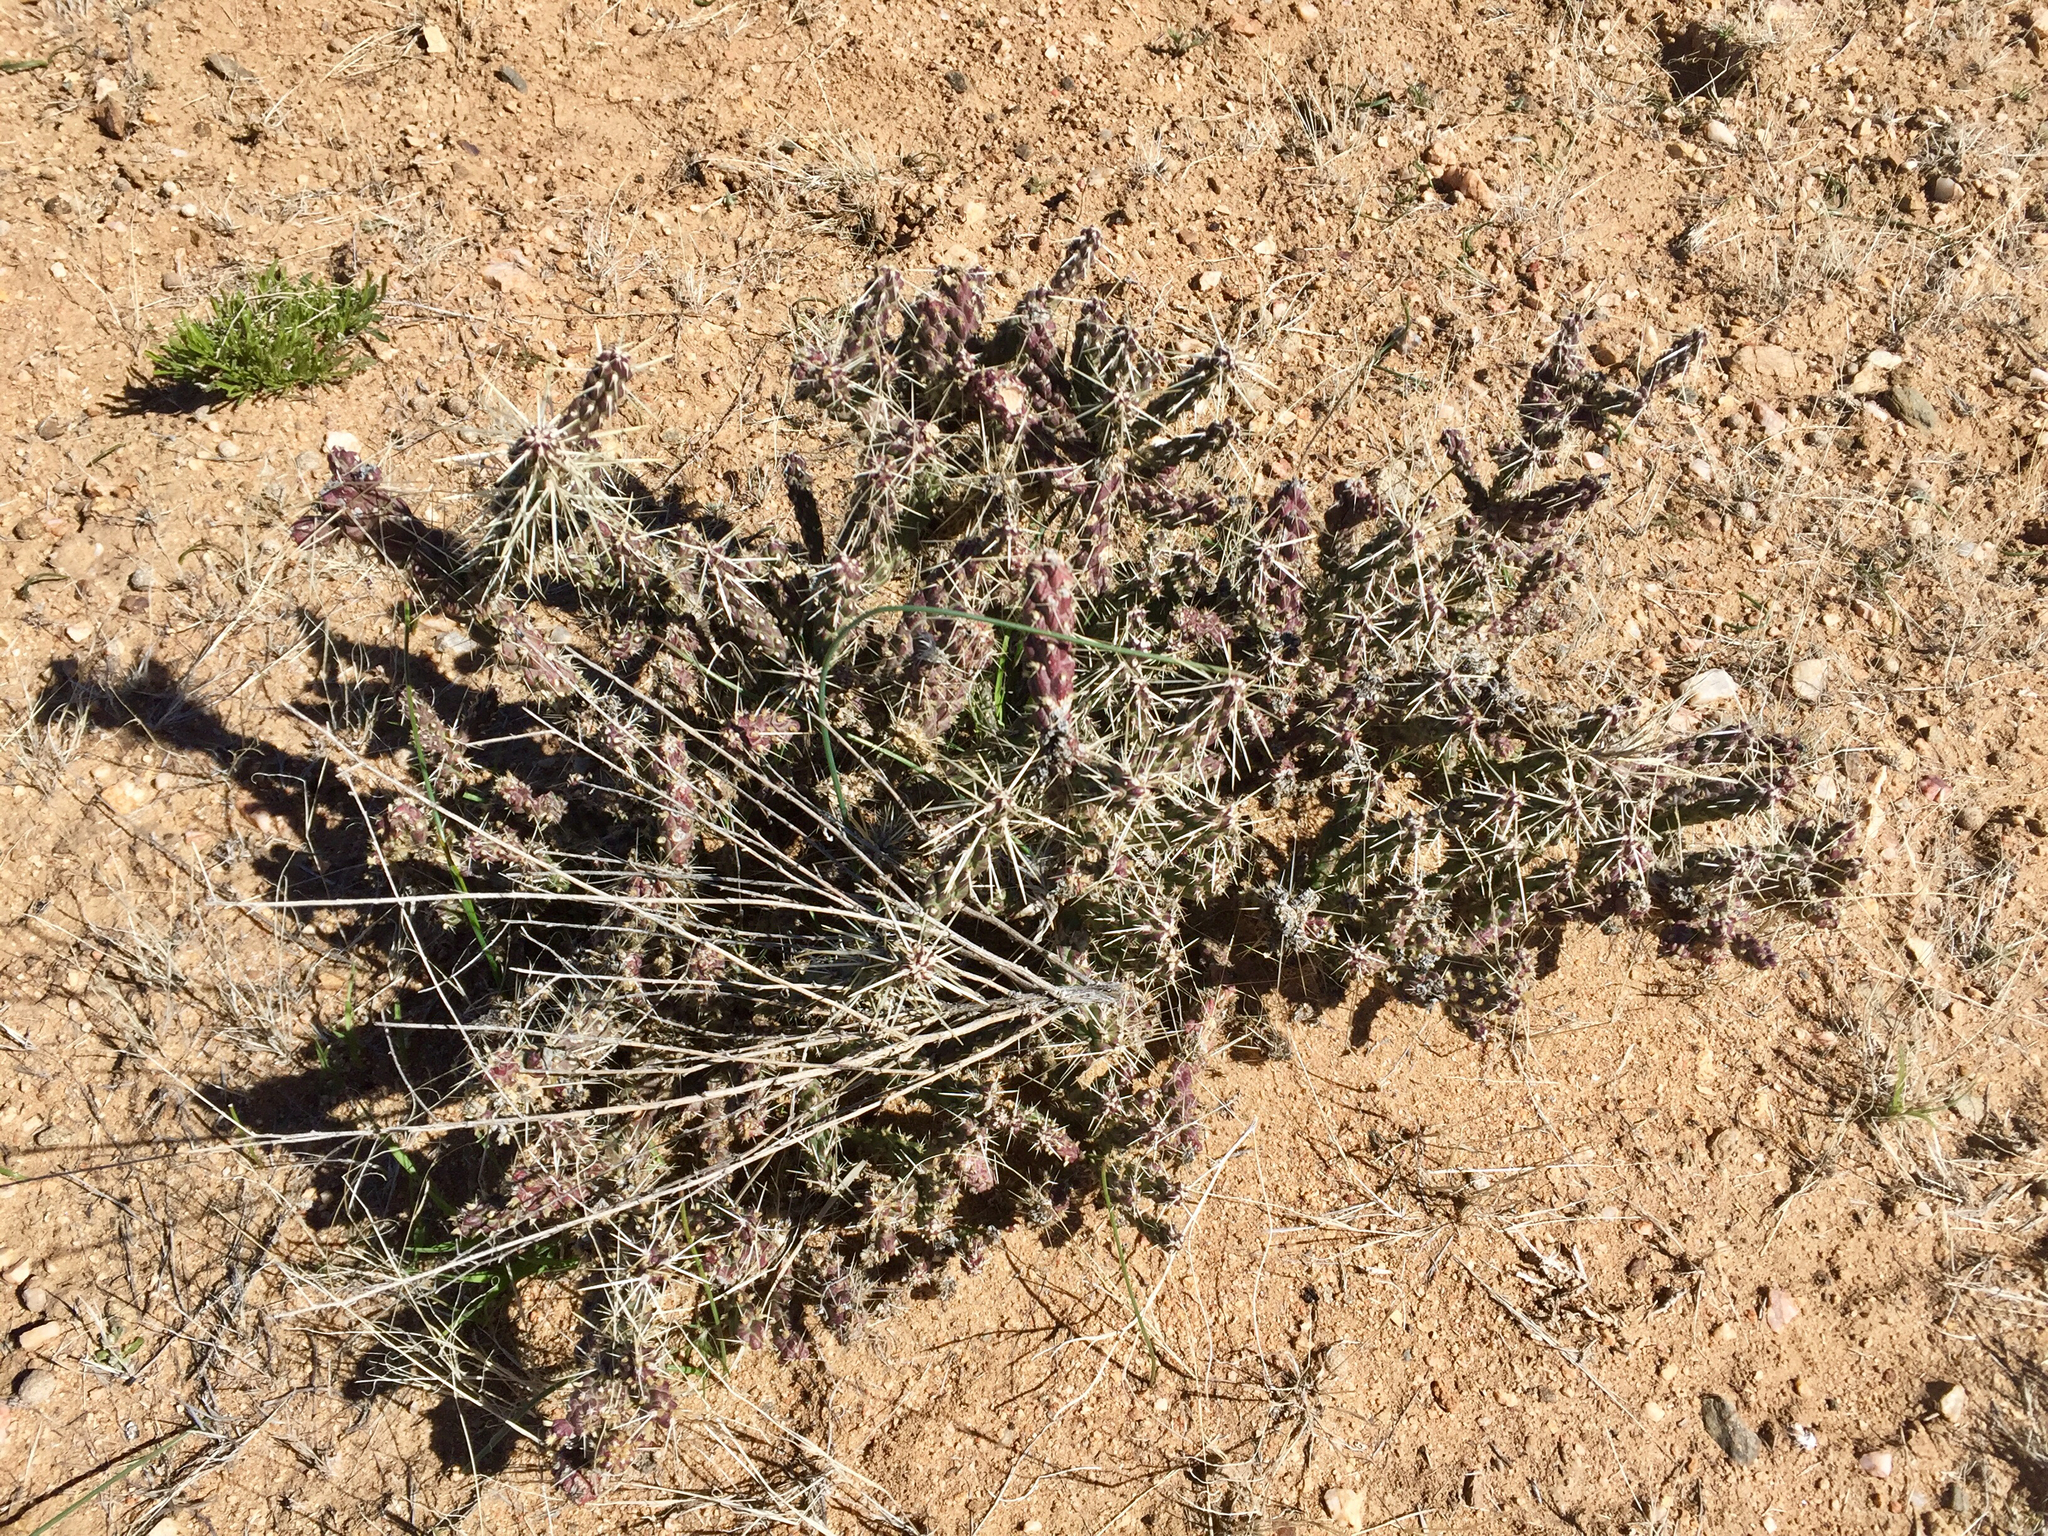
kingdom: Plantae
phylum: Tracheophyta
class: Magnoliopsida
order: Caryophyllales
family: Cactaceae
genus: Cylindropuntia
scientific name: Cylindropuntia whipplei
